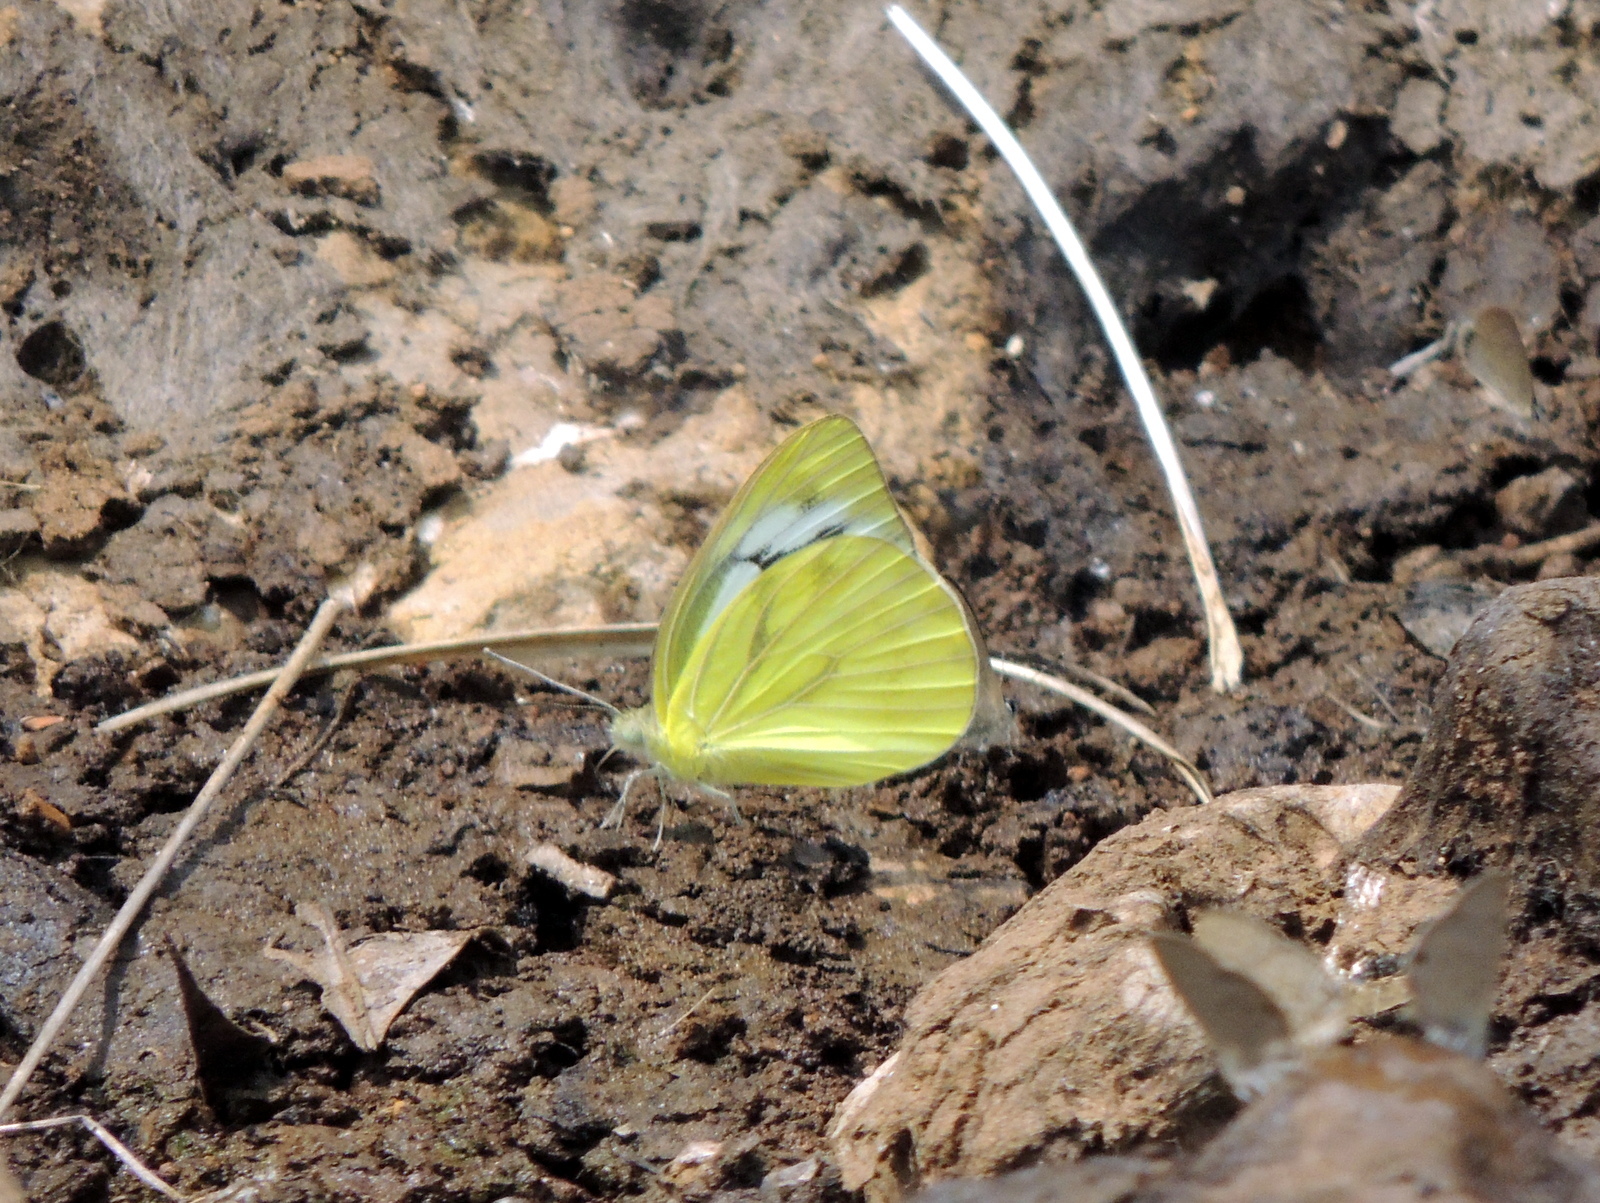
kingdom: Animalia
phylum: Arthropoda
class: Insecta
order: Lepidoptera
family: Pieridae
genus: Cepora
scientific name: Cepora nerissa
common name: Common gull
